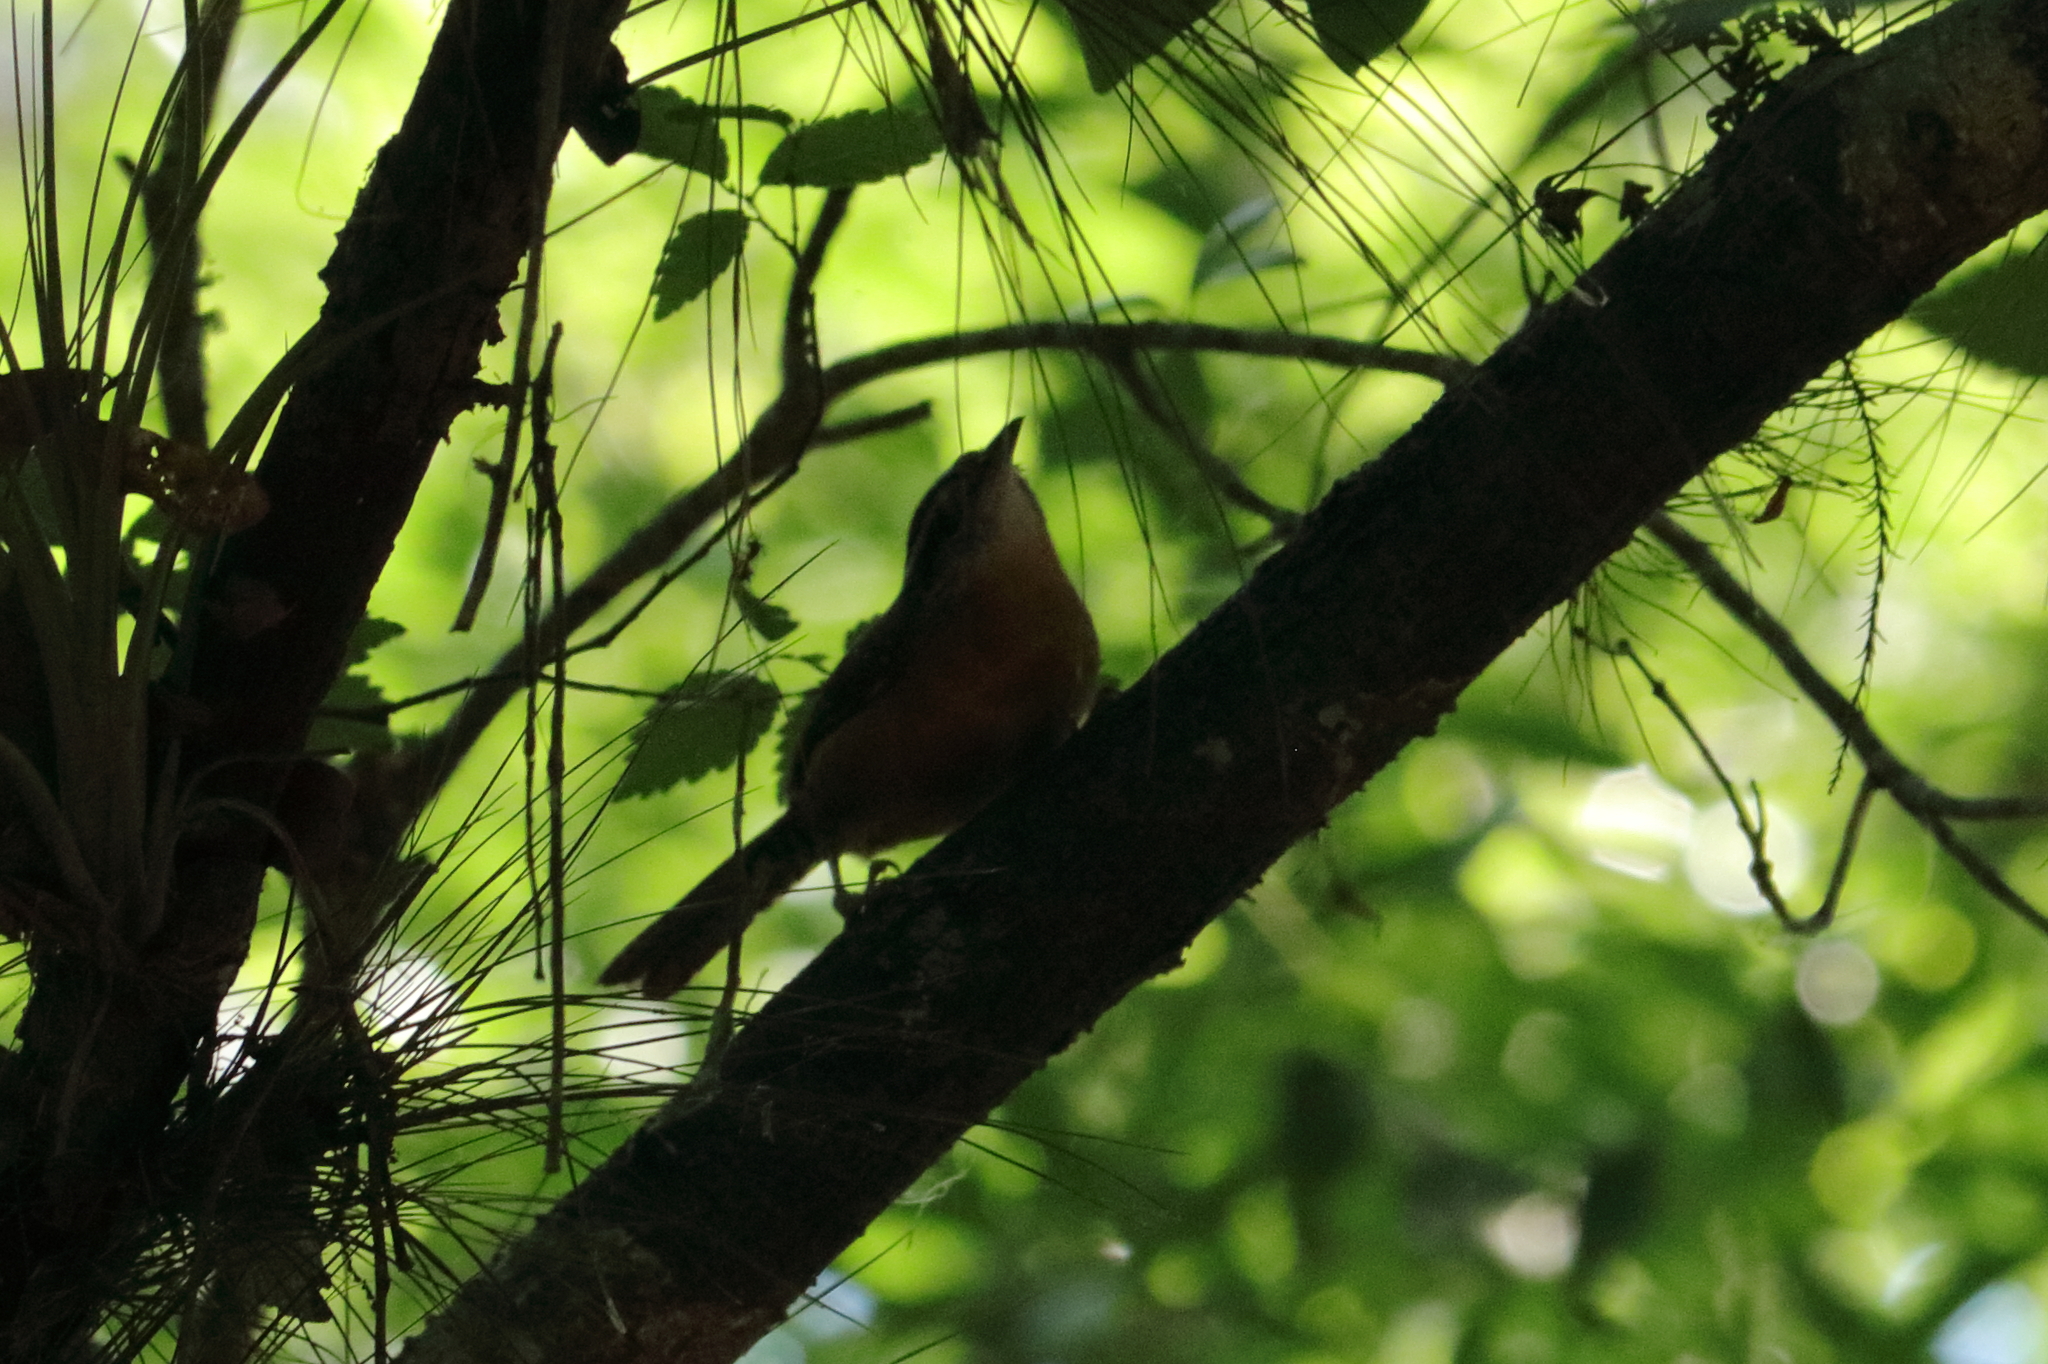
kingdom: Animalia
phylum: Chordata
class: Aves
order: Passeriformes
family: Troglodytidae
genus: Thryothorus
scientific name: Thryothorus ludovicianus
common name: Carolina wren
